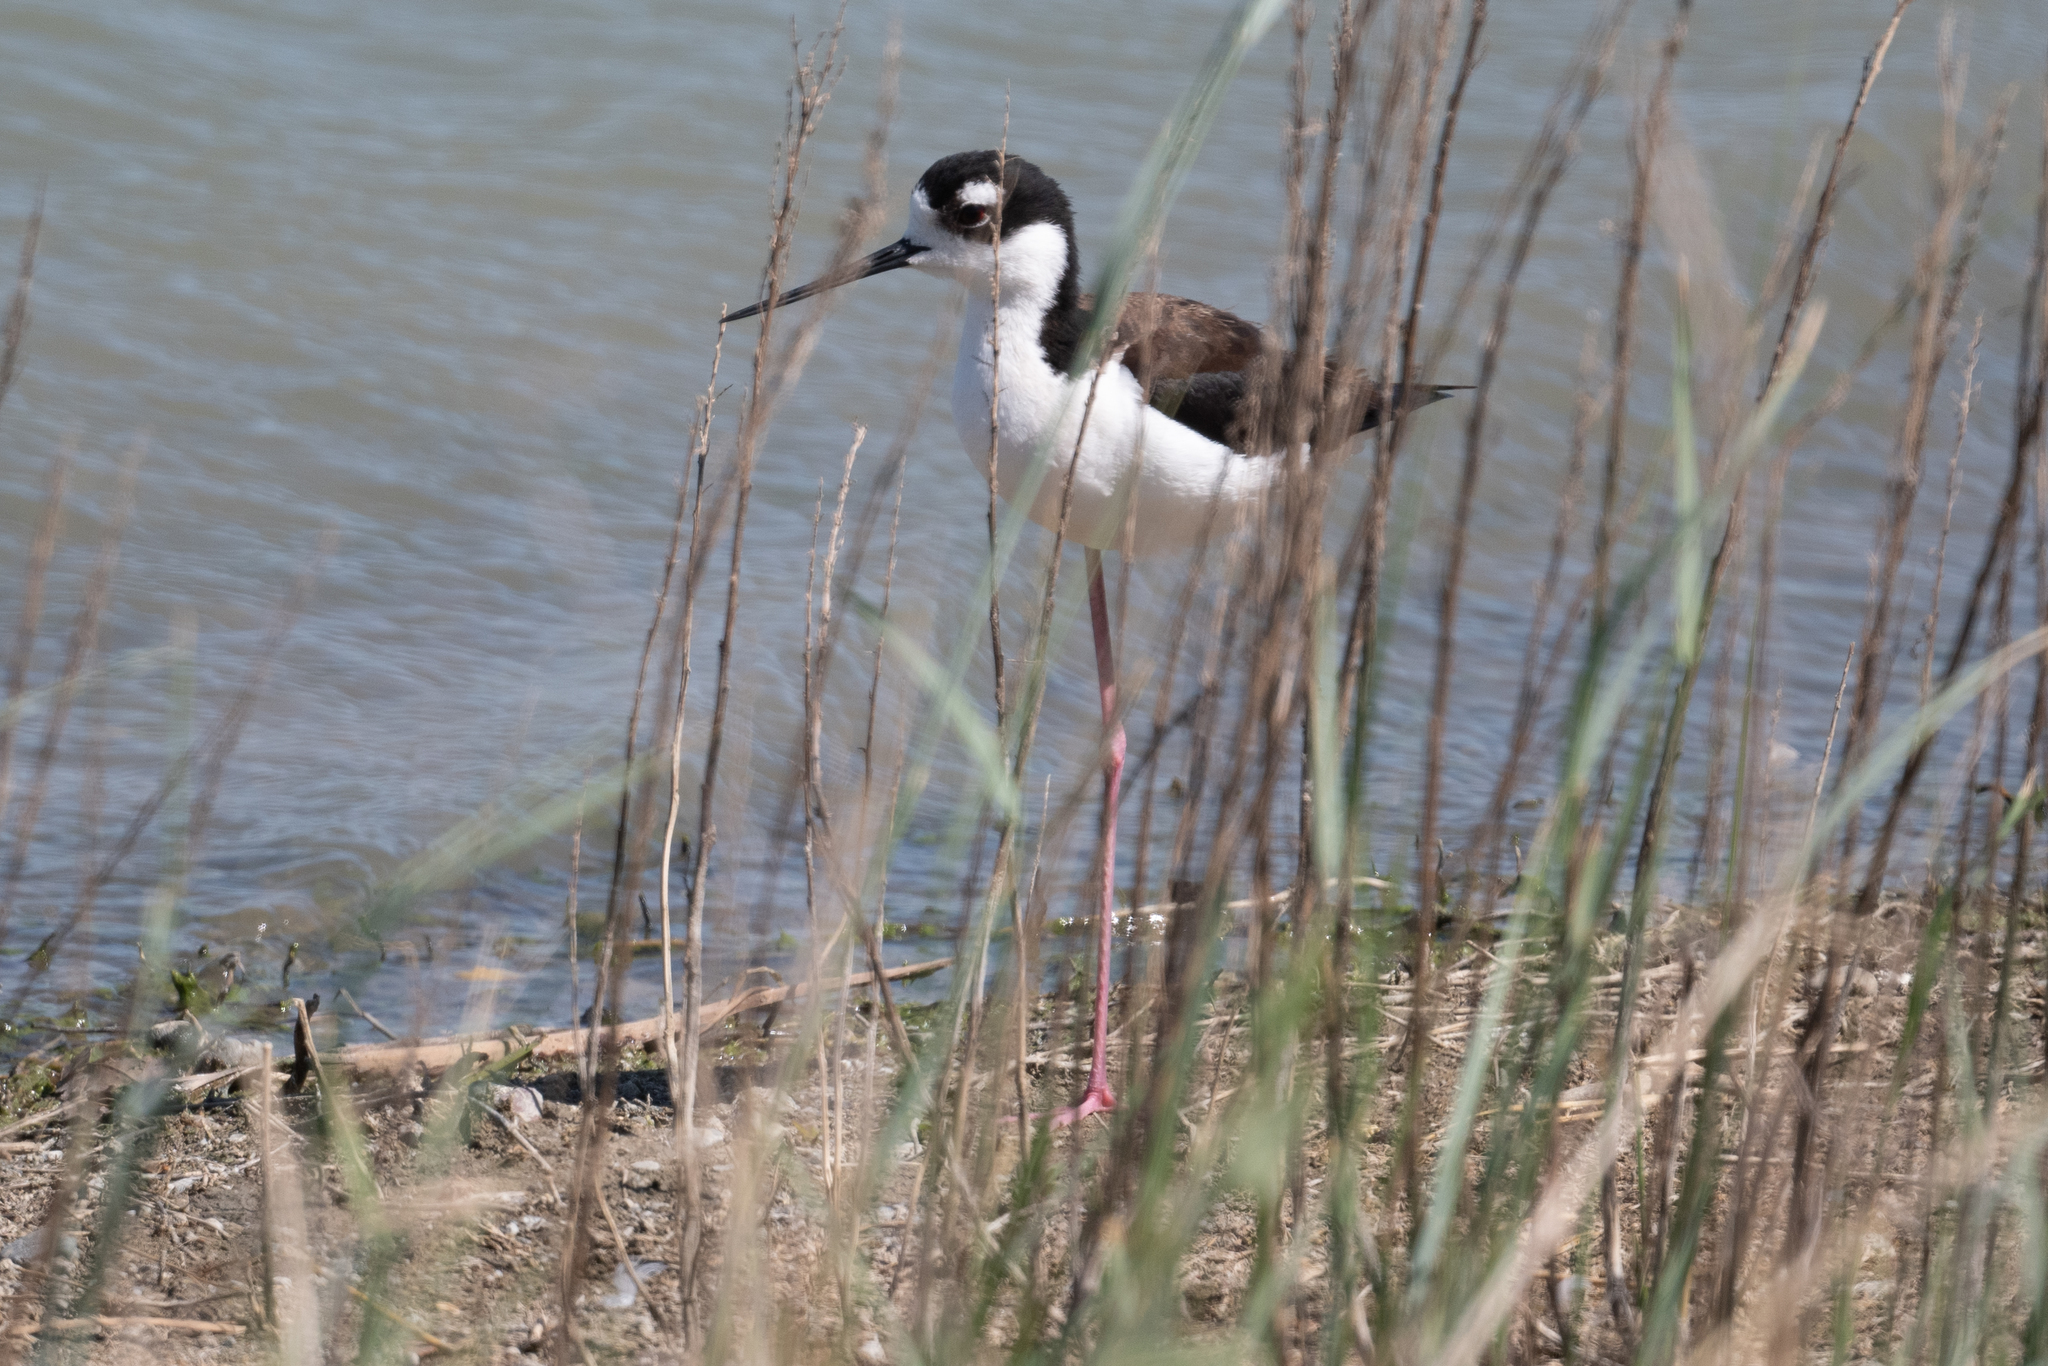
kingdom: Animalia
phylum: Chordata
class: Aves
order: Charadriiformes
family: Recurvirostridae
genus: Himantopus
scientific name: Himantopus mexicanus
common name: Black-necked stilt
